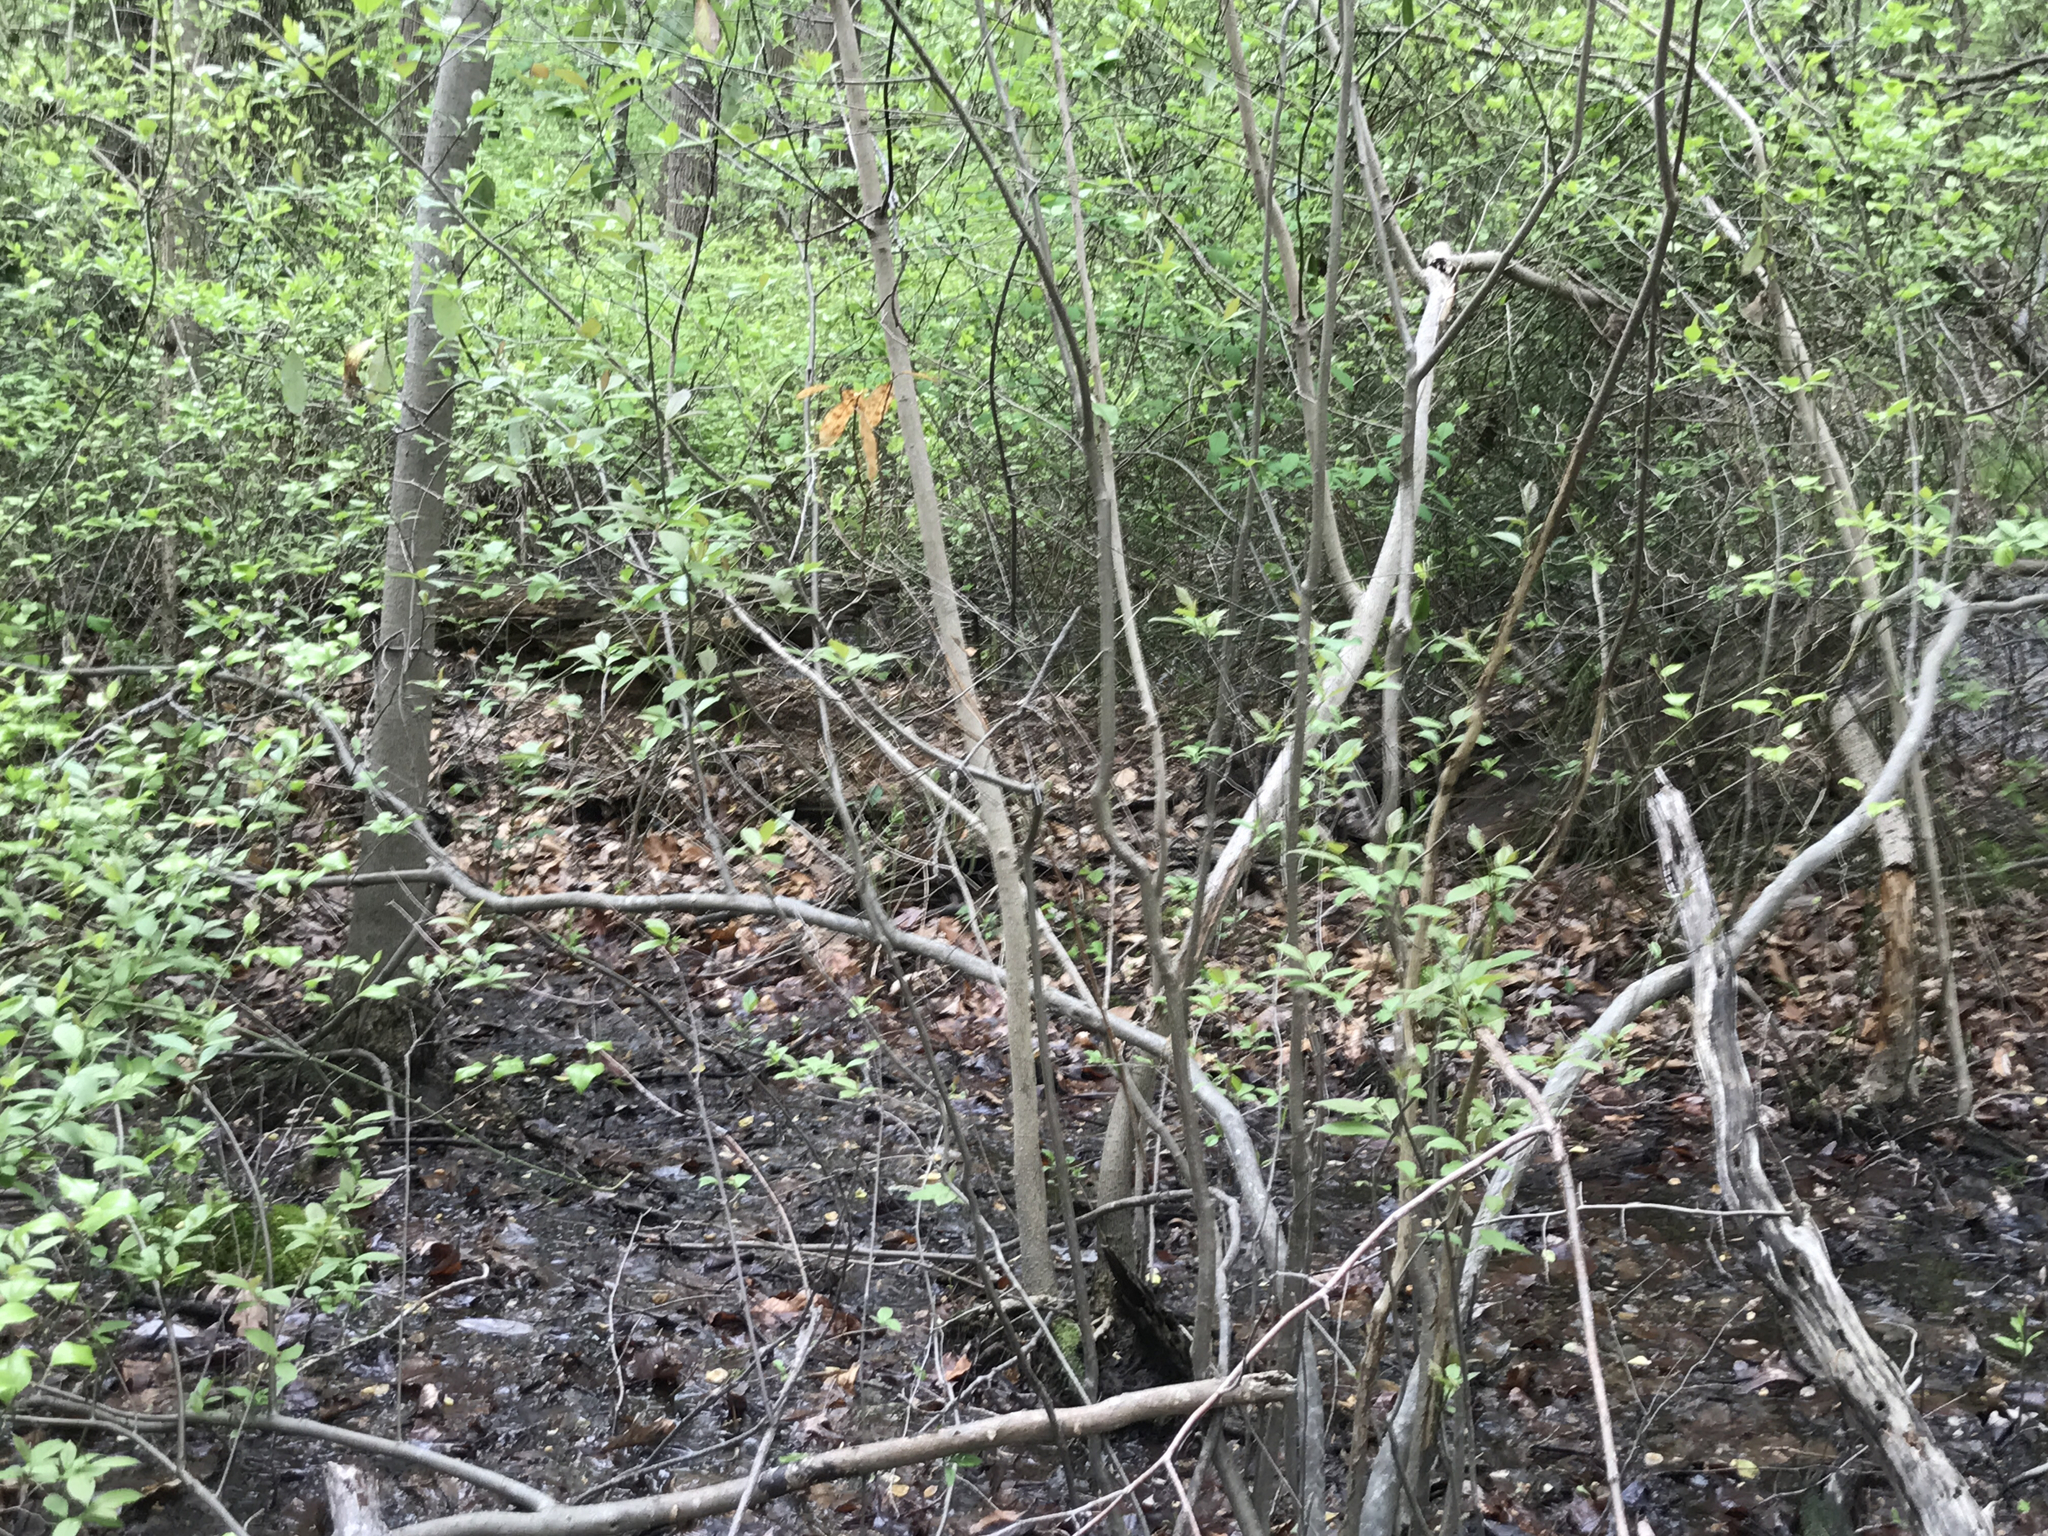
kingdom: Plantae
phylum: Tracheophyta
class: Magnoliopsida
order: Magnoliales
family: Magnoliaceae
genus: Magnolia
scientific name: Magnolia virginiana
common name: Swamp bay
